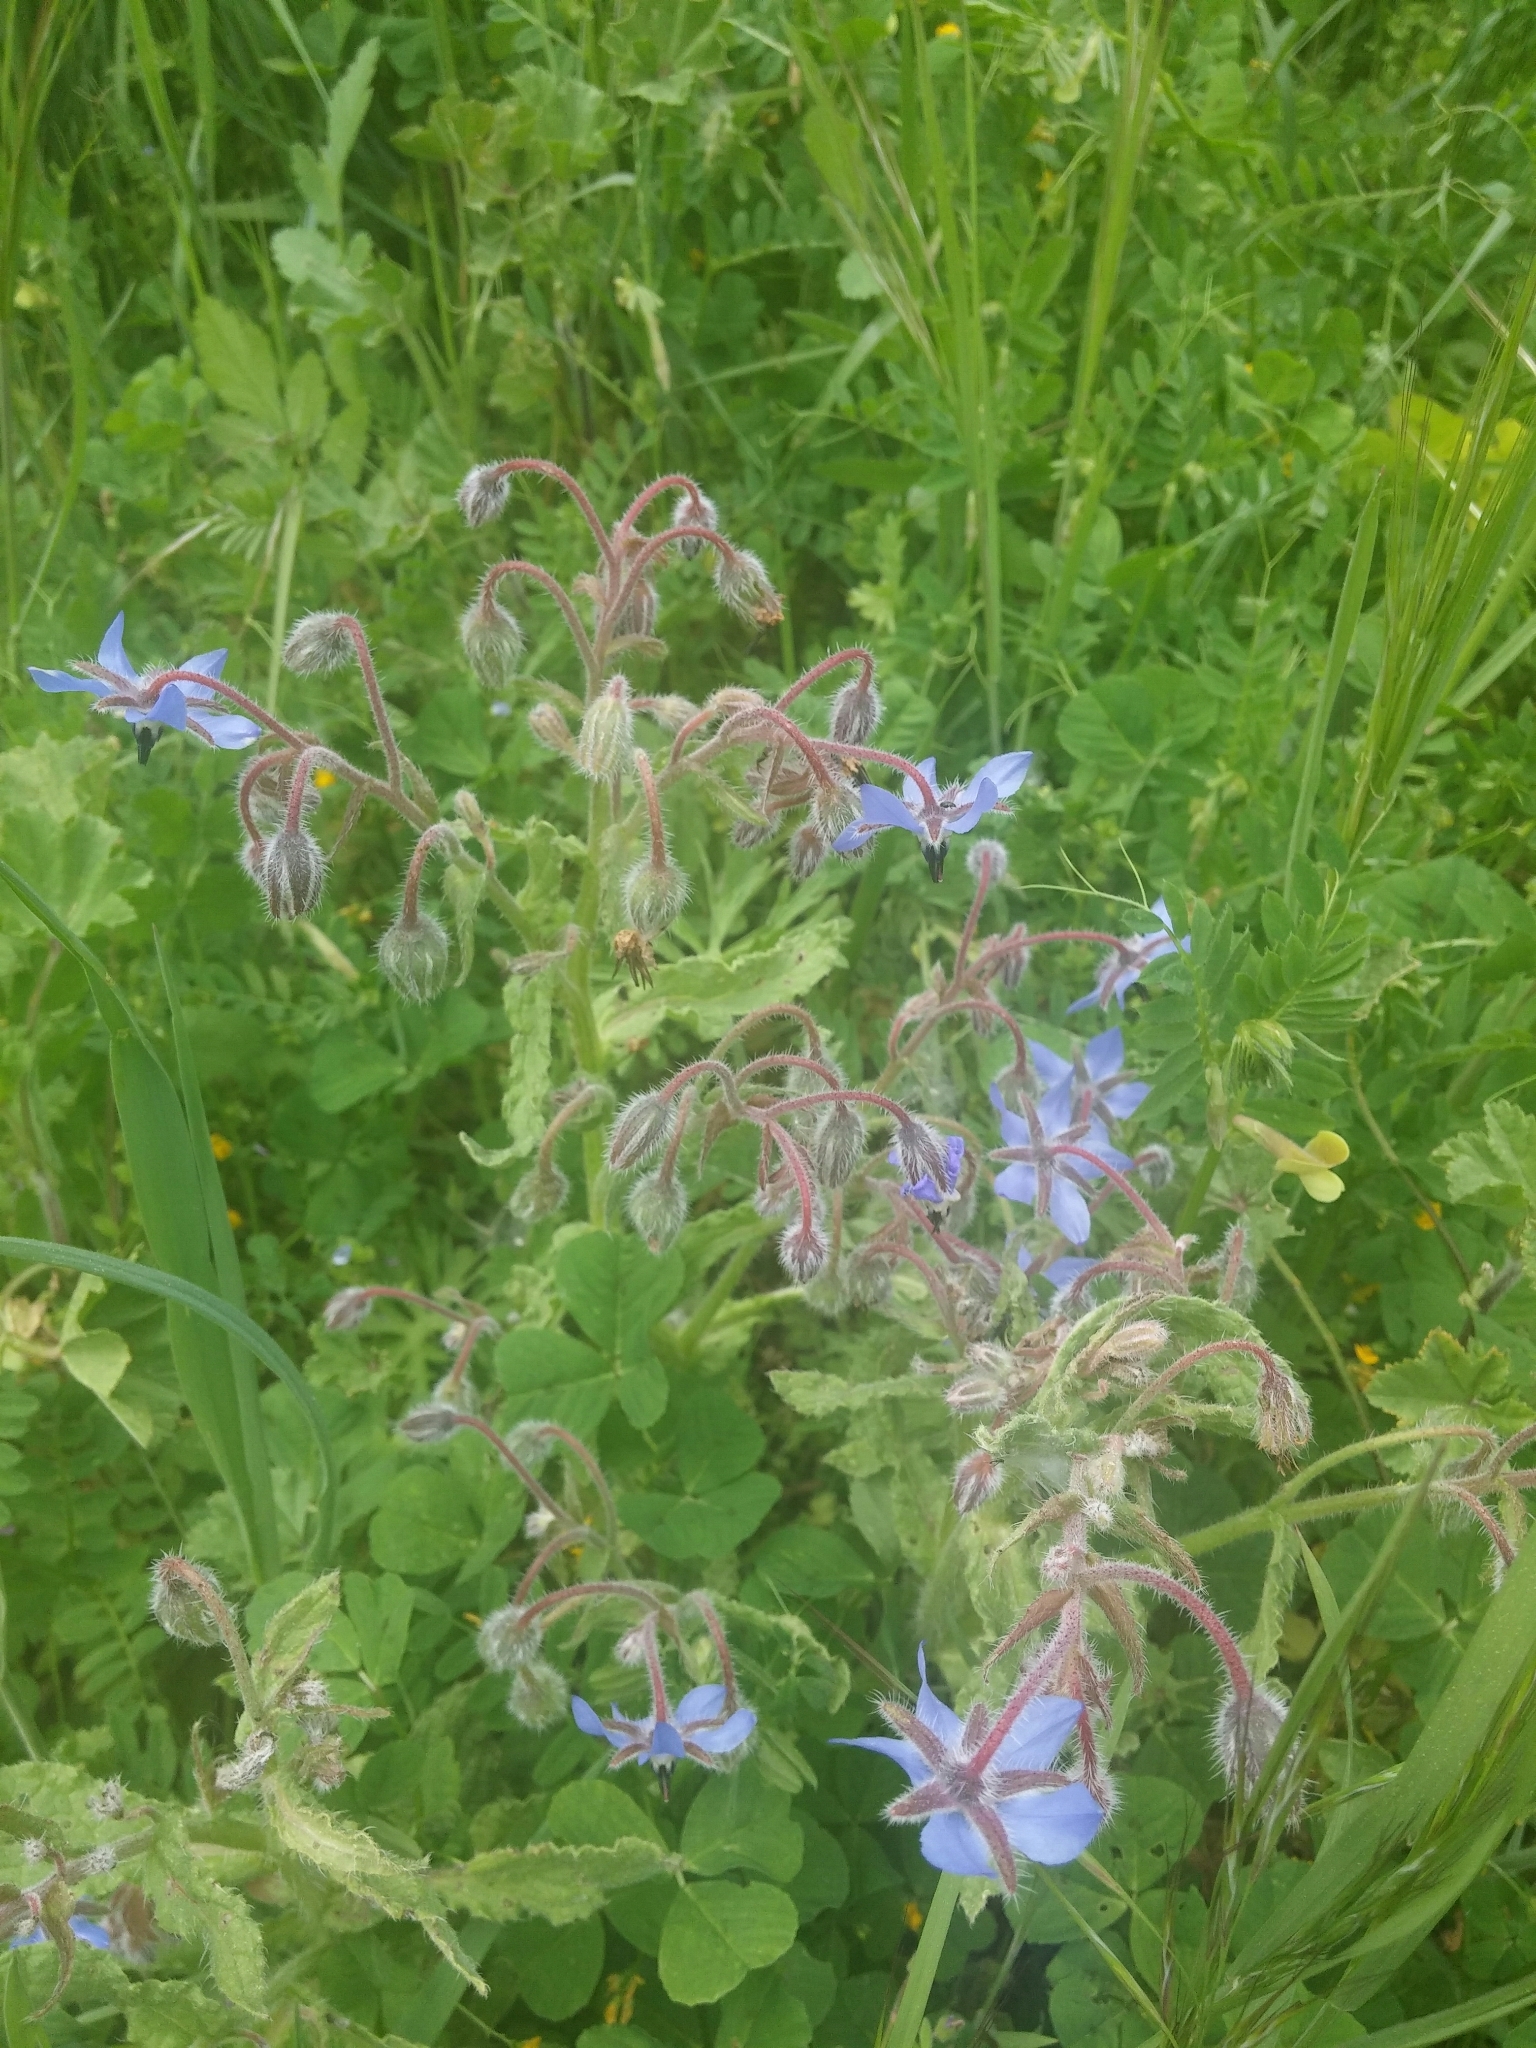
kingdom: Plantae
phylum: Tracheophyta
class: Magnoliopsida
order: Boraginales
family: Boraginaceae
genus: Borago
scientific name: Borago officinalis
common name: Borage
